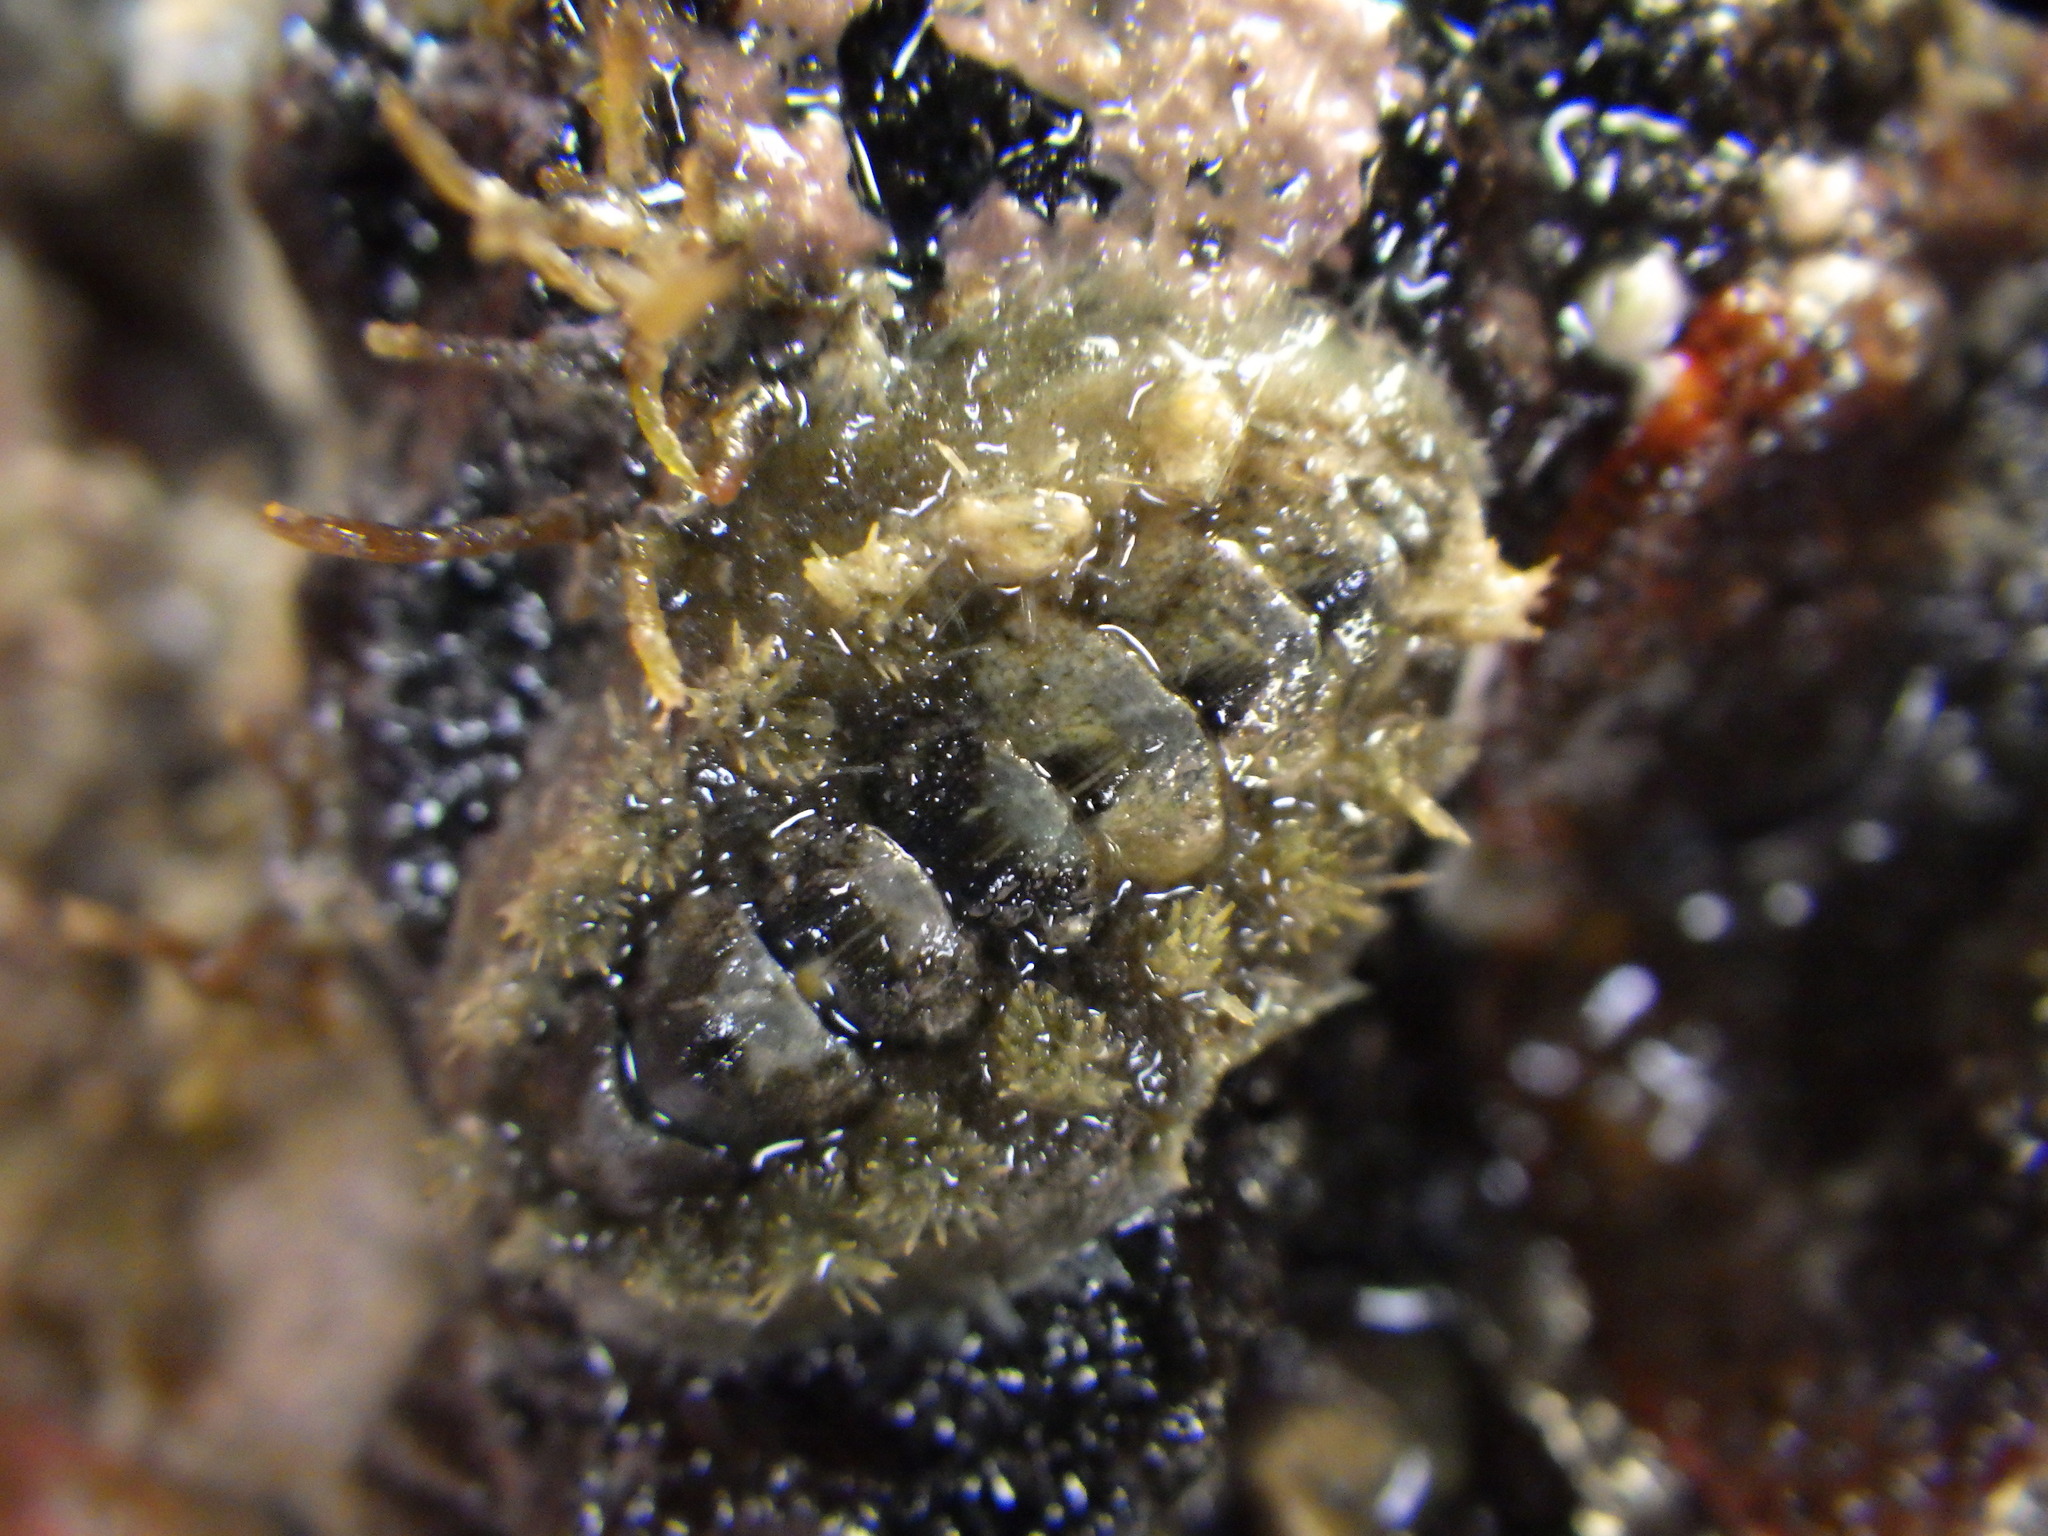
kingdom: Animalia
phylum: Mollusca
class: Polyplacophora
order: Chitonida
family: Acanthochitonidae
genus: Acanthochitona
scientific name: Acanthochitona zelandica
